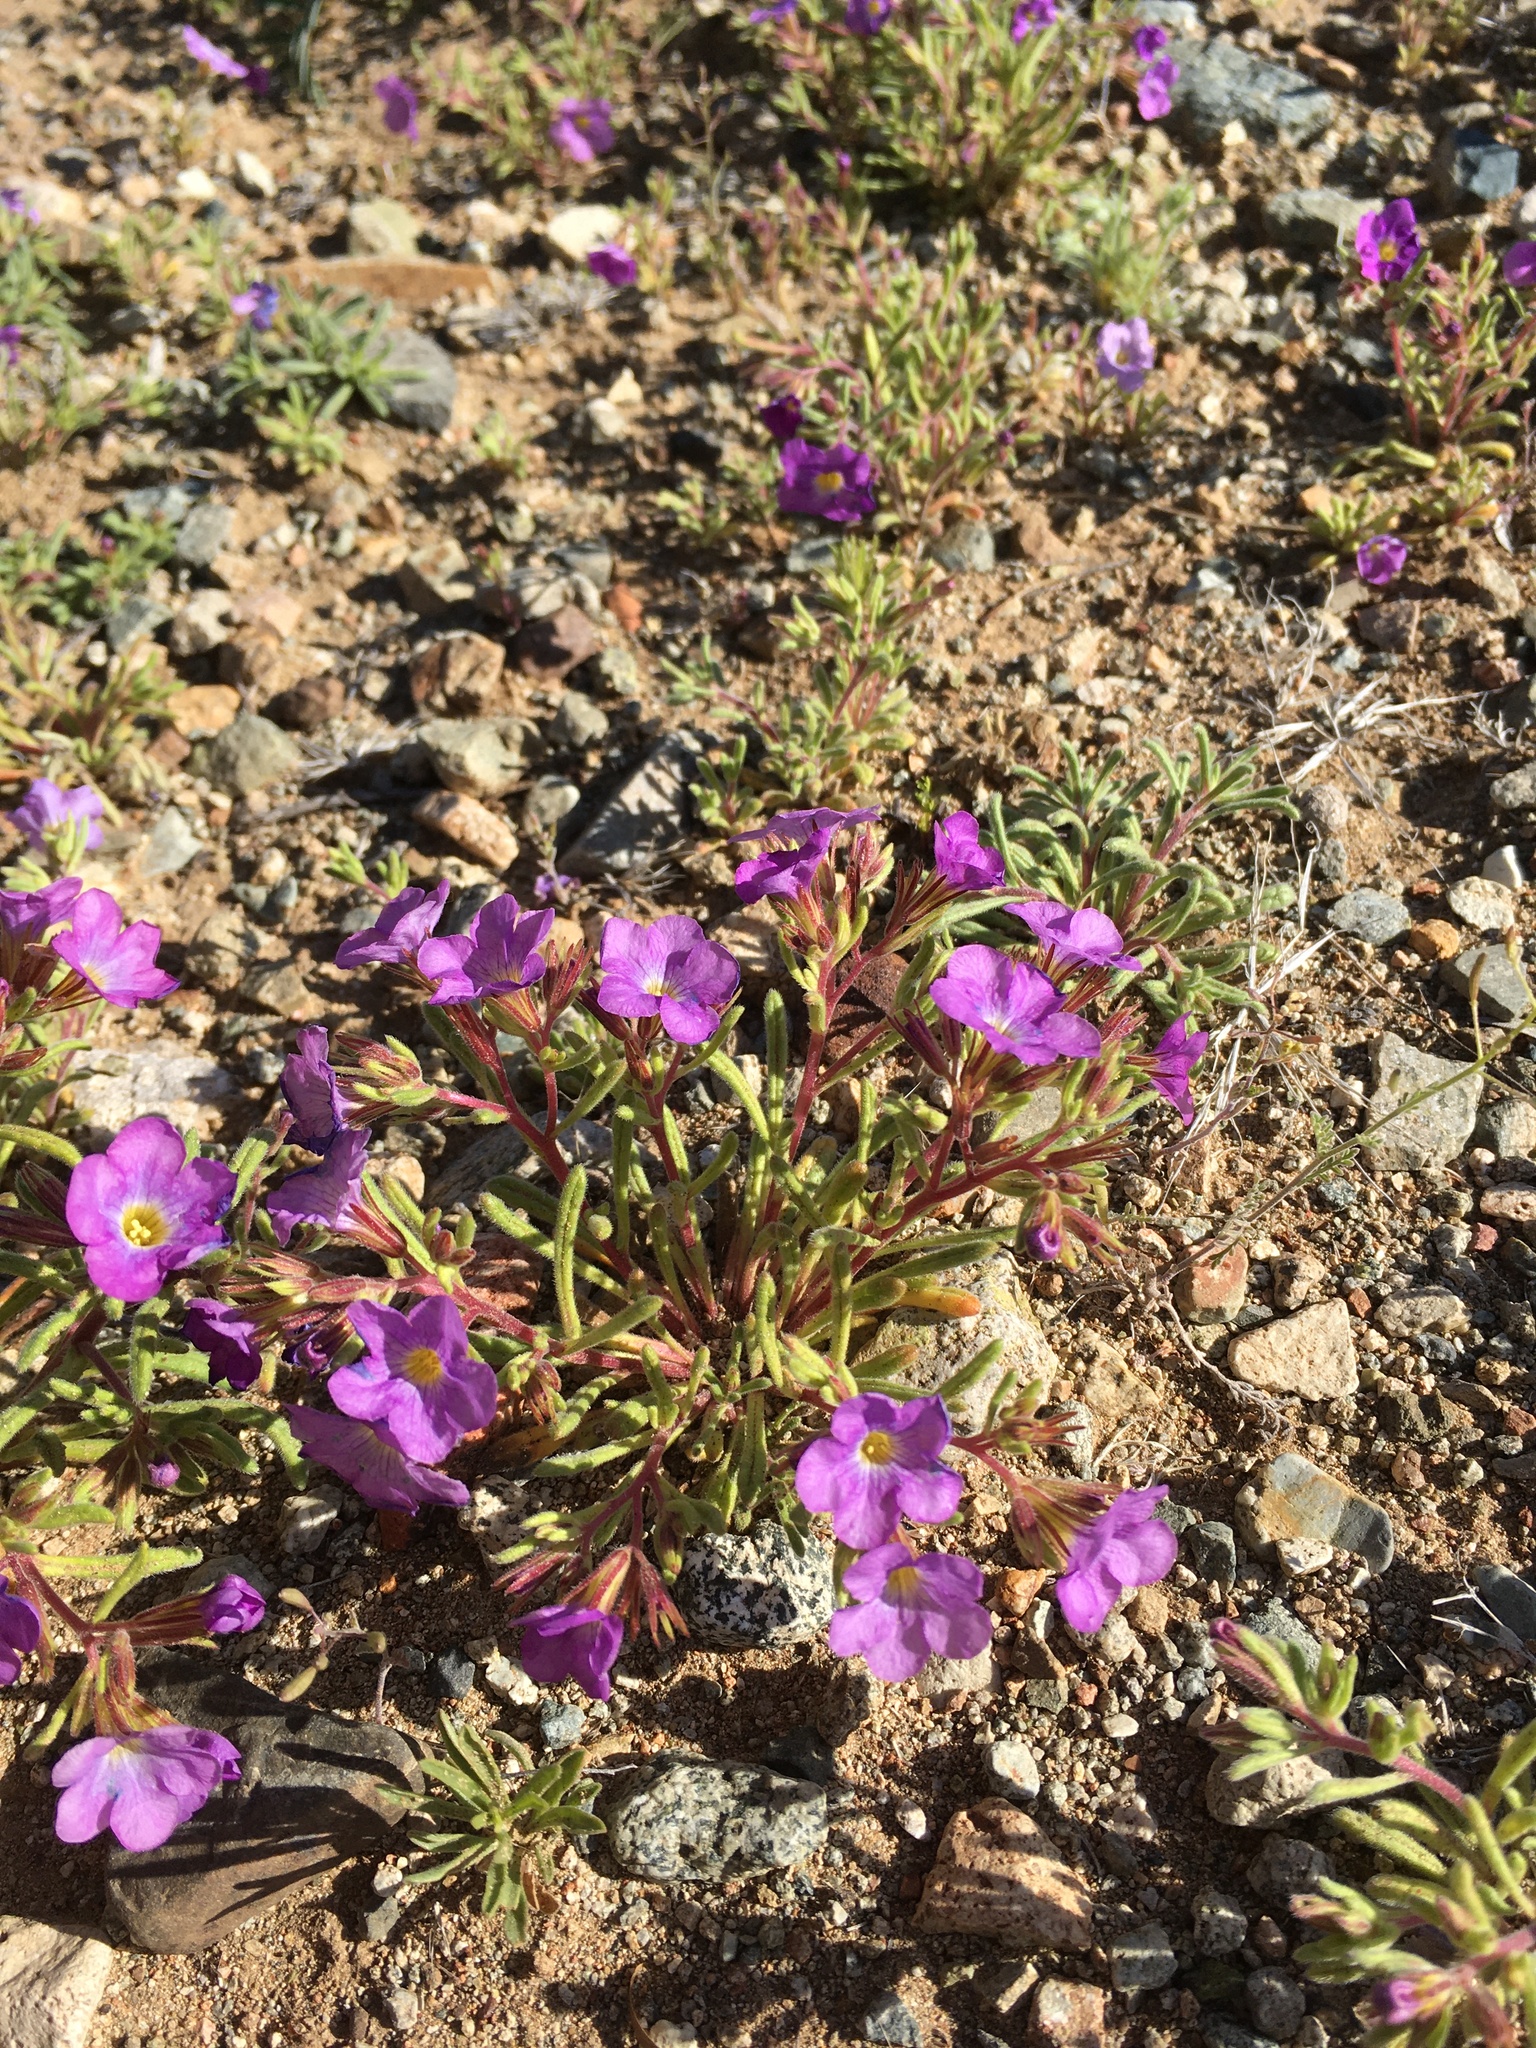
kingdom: Plantae
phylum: Tracheophyta
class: Magnoliopsida
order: Boraginales
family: Namaceae
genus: Nama
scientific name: Nama hispida
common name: Bristly nama
